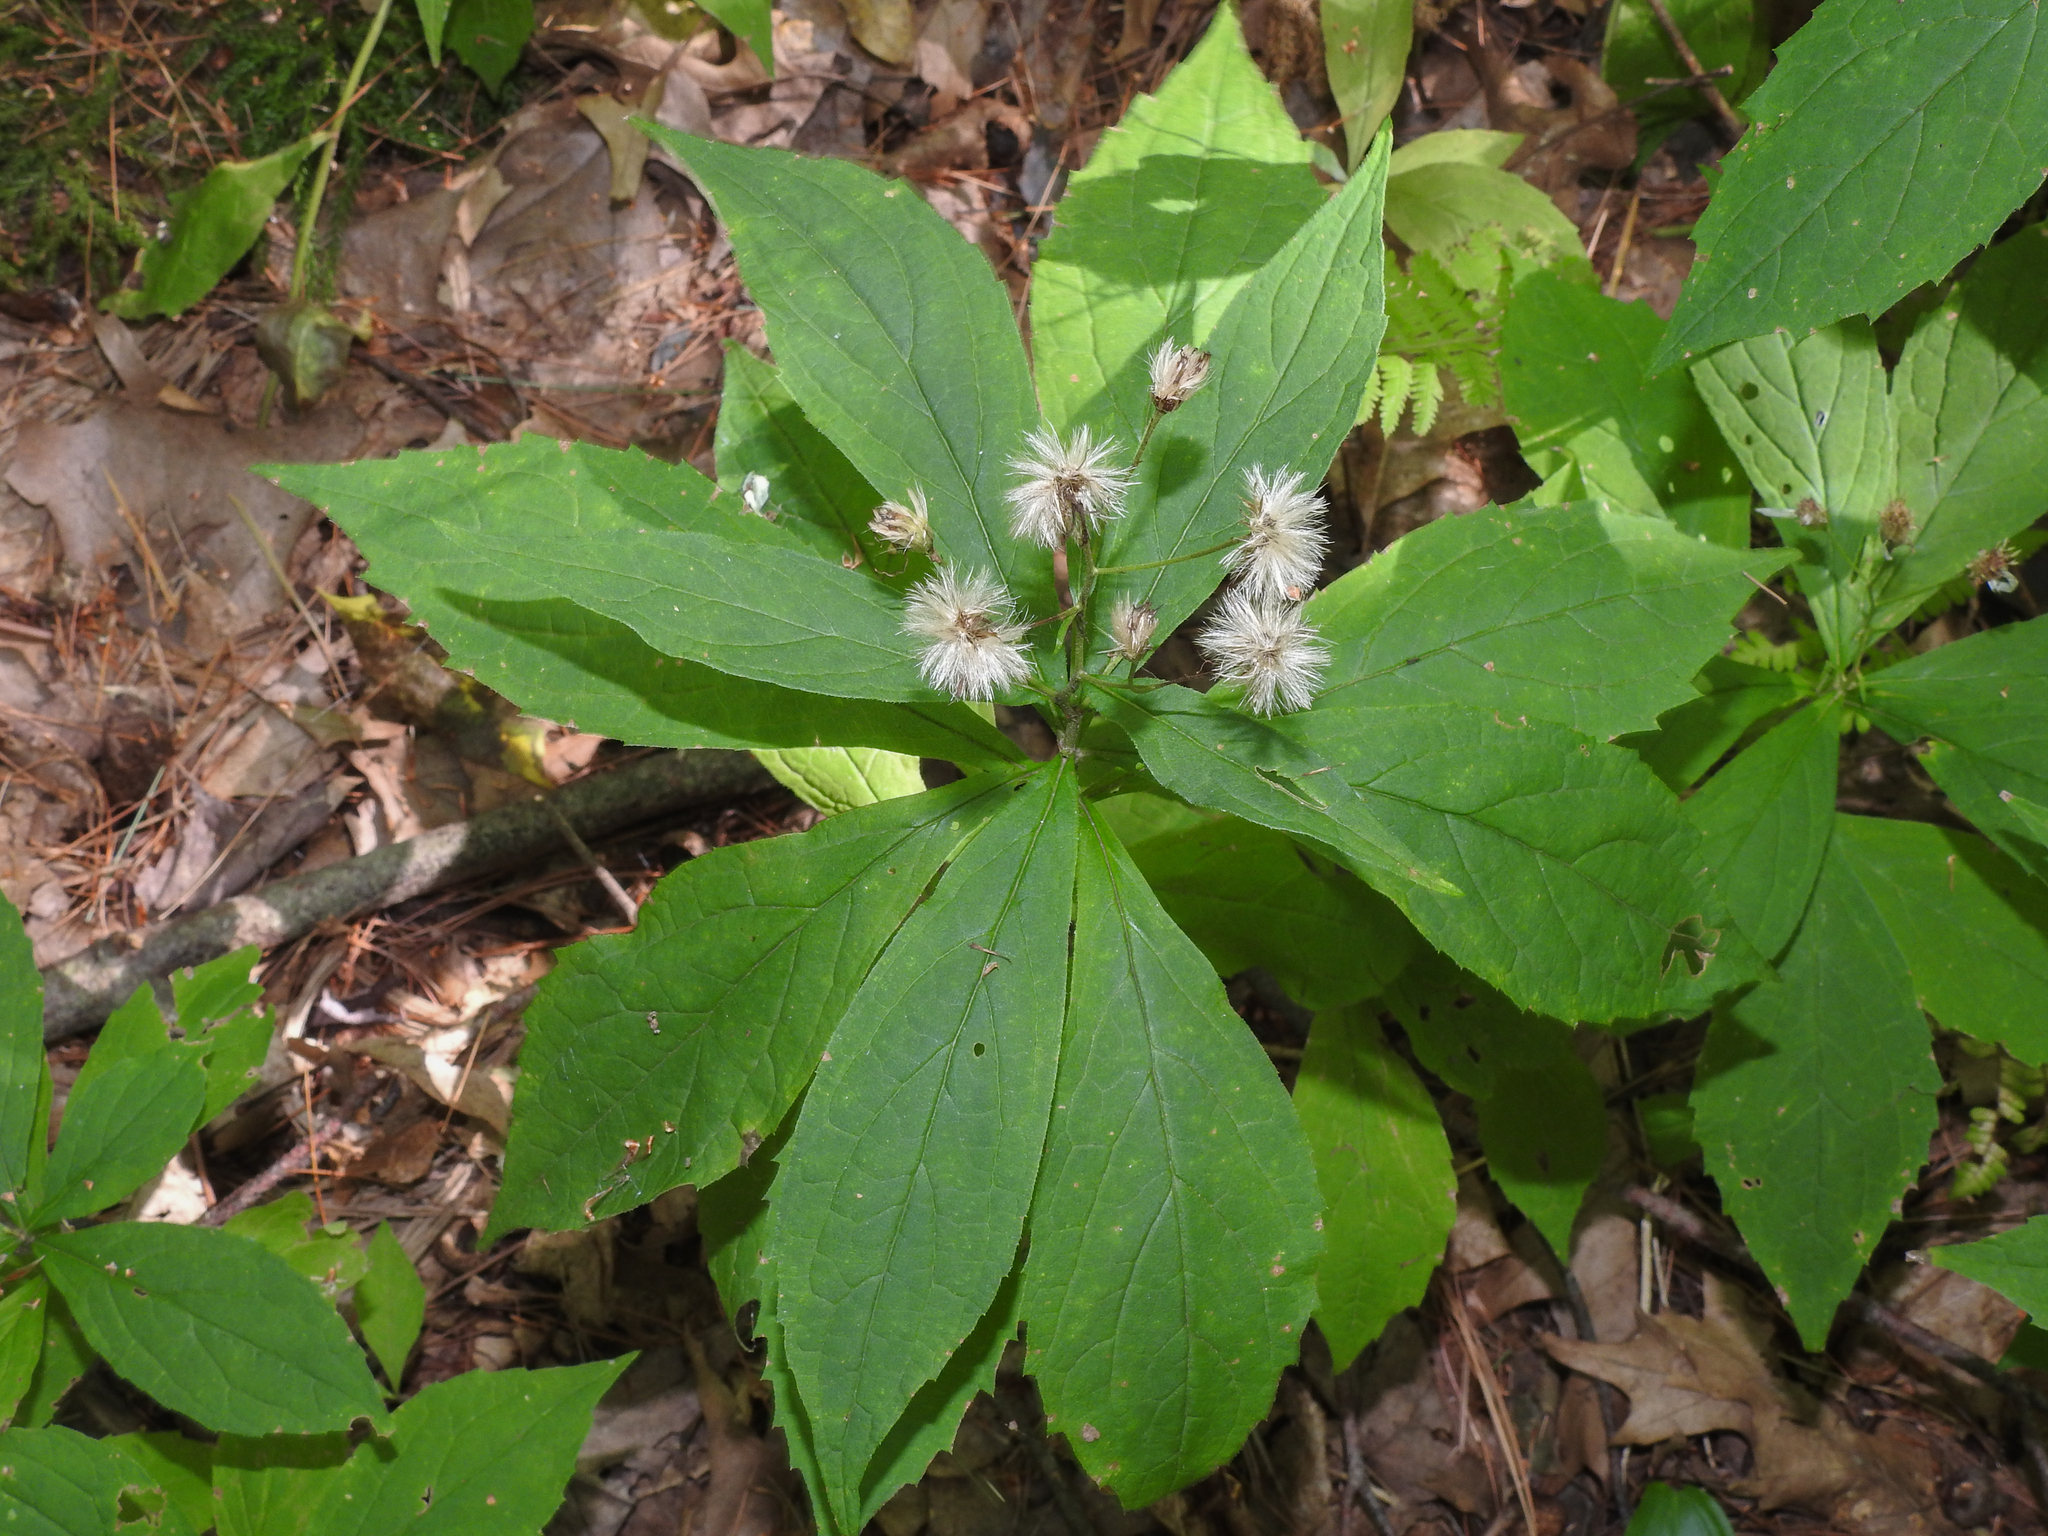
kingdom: Plantae
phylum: Tracheophyta
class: Magnoliopsida
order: Asterales
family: Asteraceae
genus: Oclemena
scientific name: Oclemena acuminata
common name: Mountain aster
